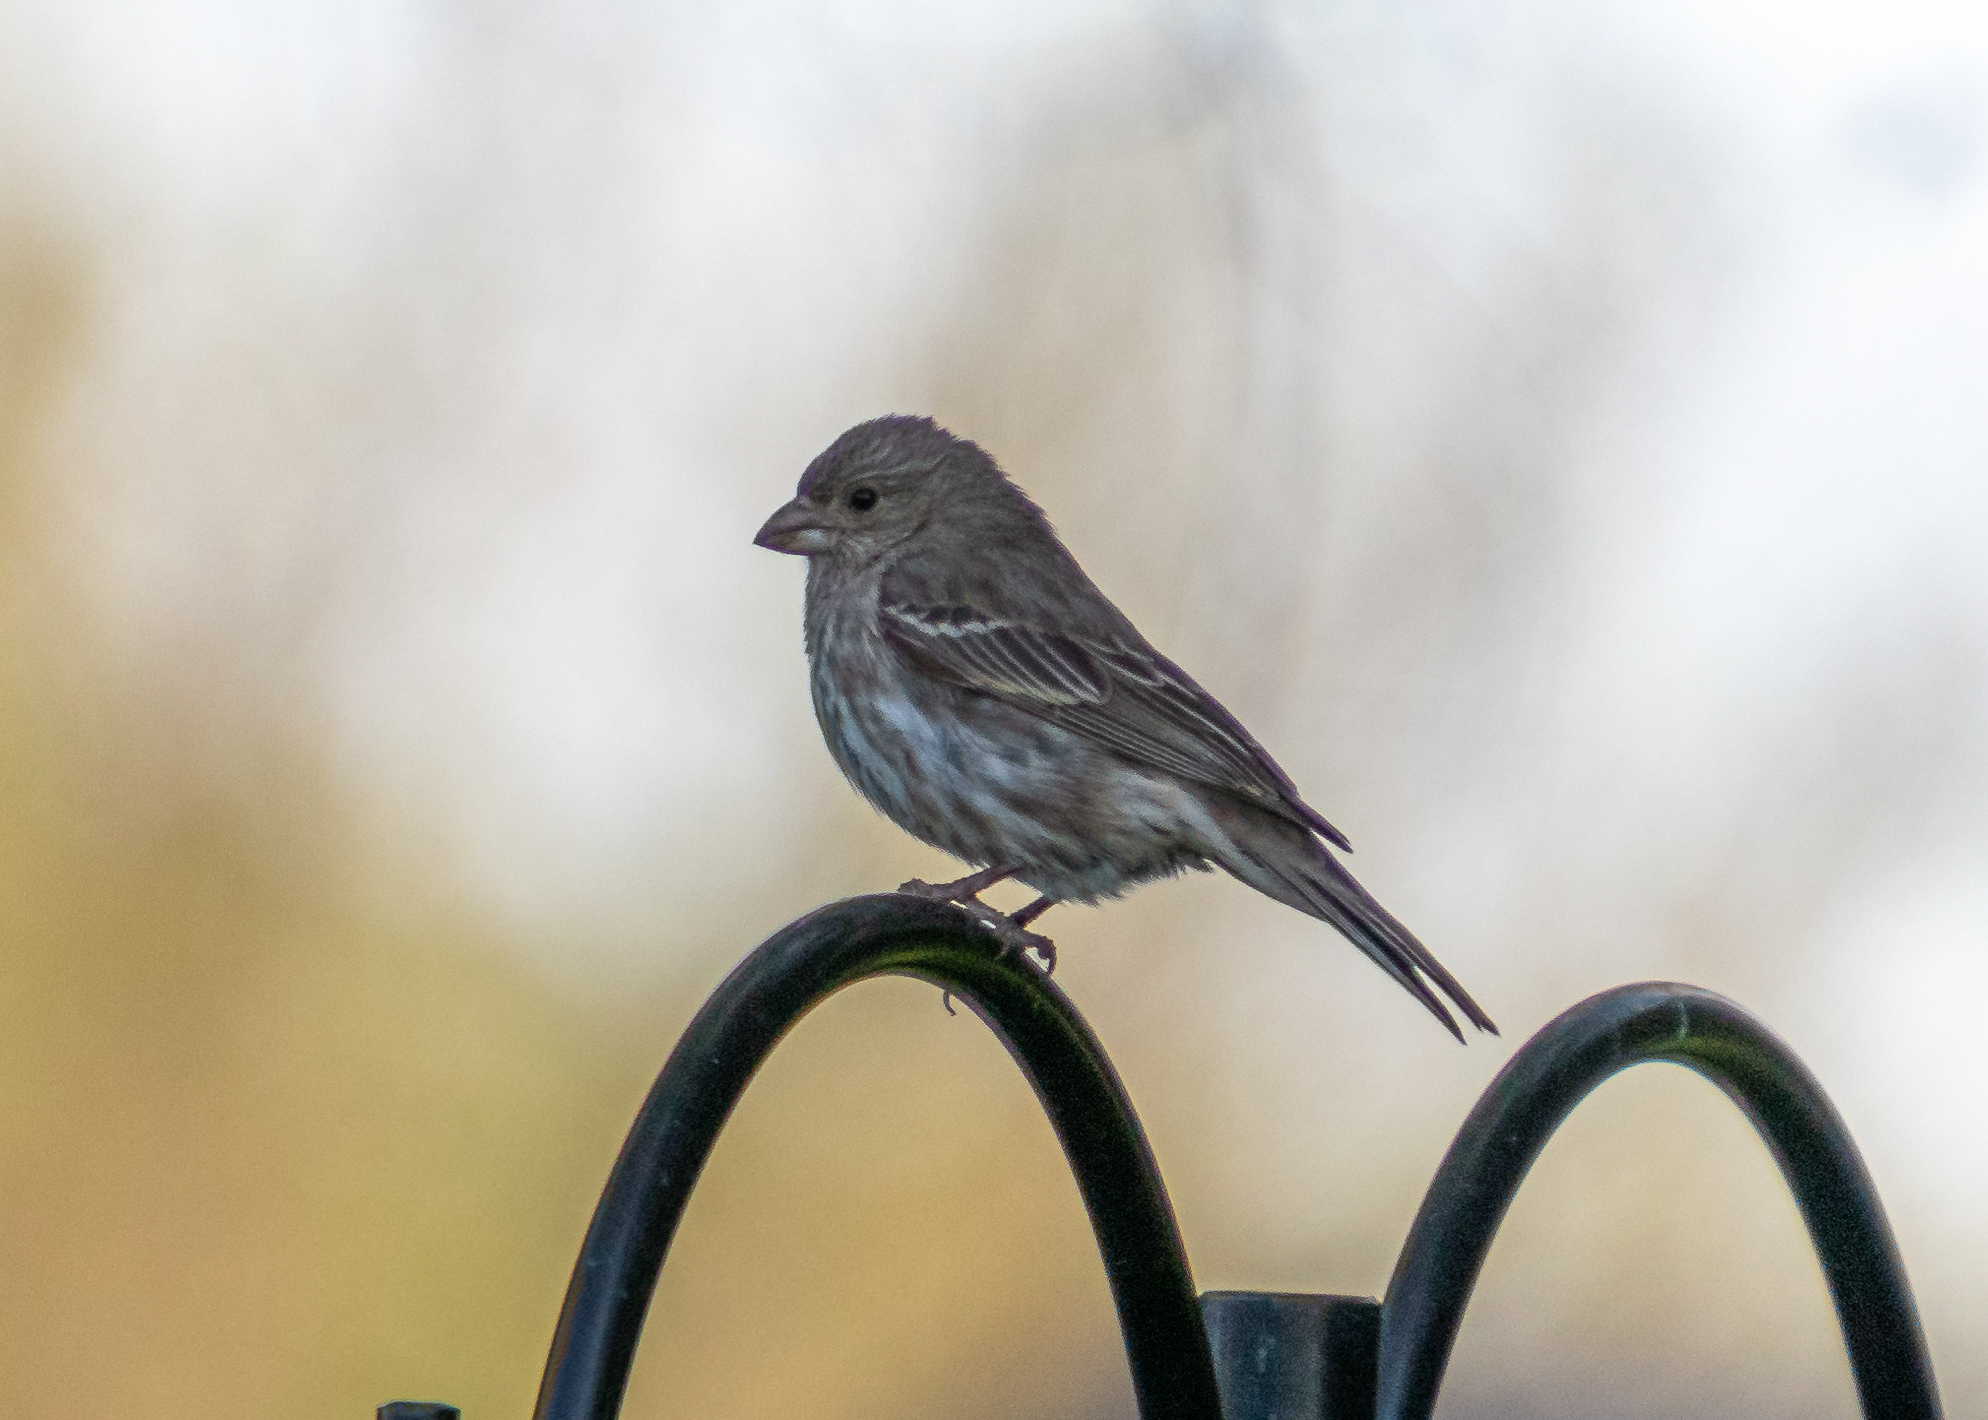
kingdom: Animalia
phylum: Chordata
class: Aves
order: Passeriformes
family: Fringillidae
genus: Haemorhous
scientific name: Haemorhous mexicanus
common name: House finch
